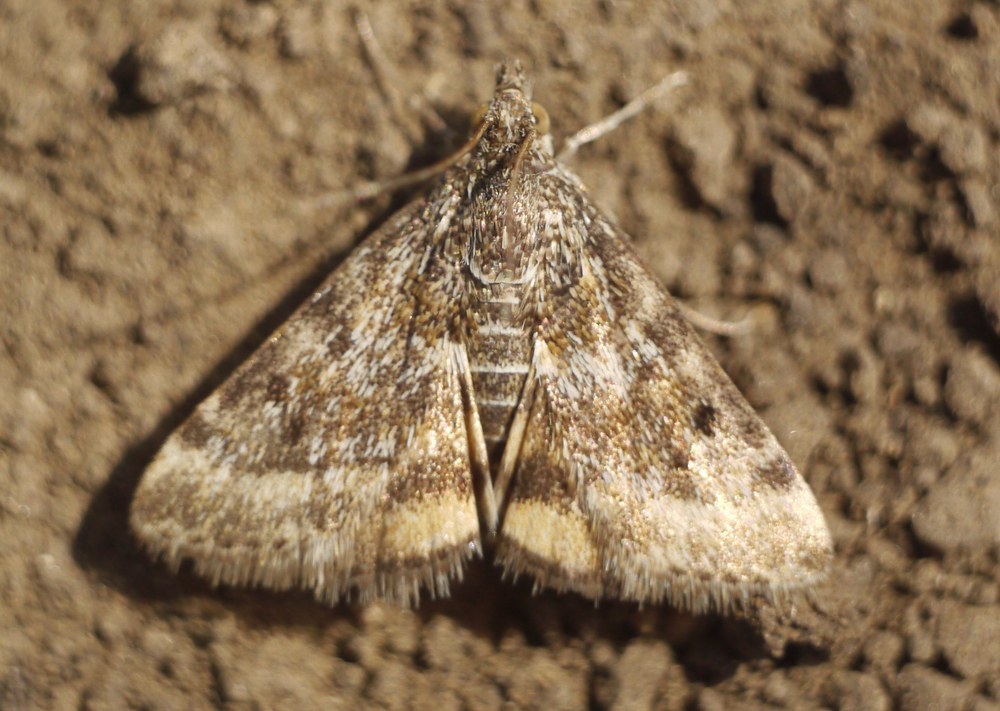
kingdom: Animalia
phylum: Arthropoda
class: Insecta
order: Lepidoptera
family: Crambidae
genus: Noctuelia
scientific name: Noctuelia Aporodes floralis
